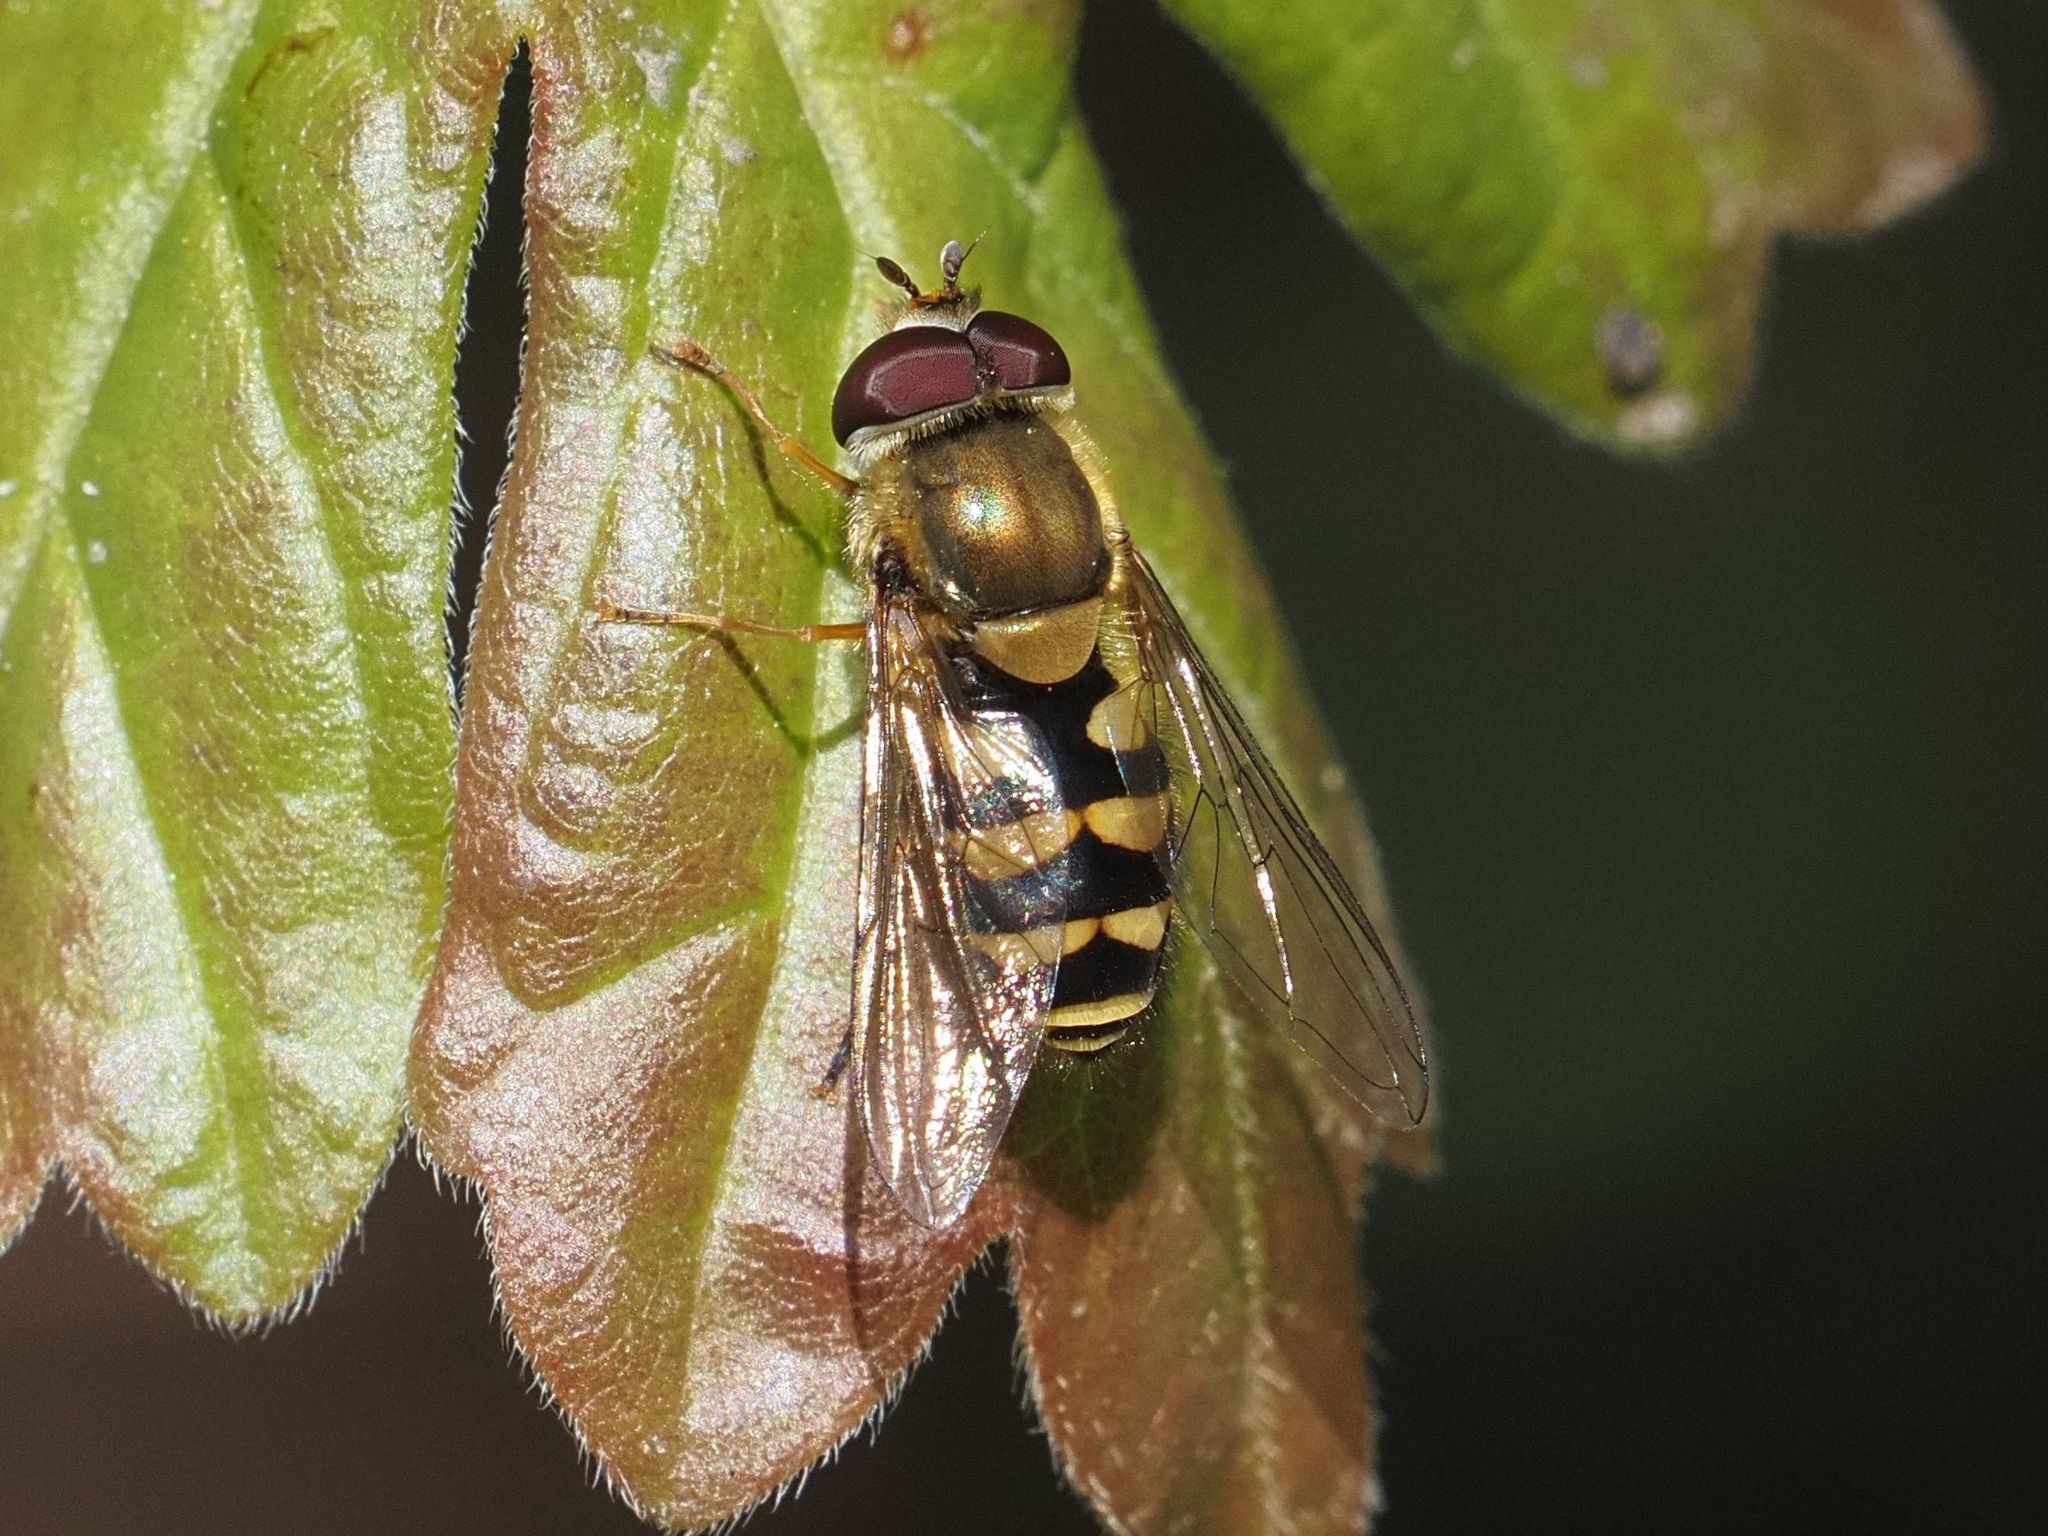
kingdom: Animalia
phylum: Arthropoda
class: Insecta
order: Diptera
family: Syrphidae
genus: Syrphus
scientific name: Syrphus
